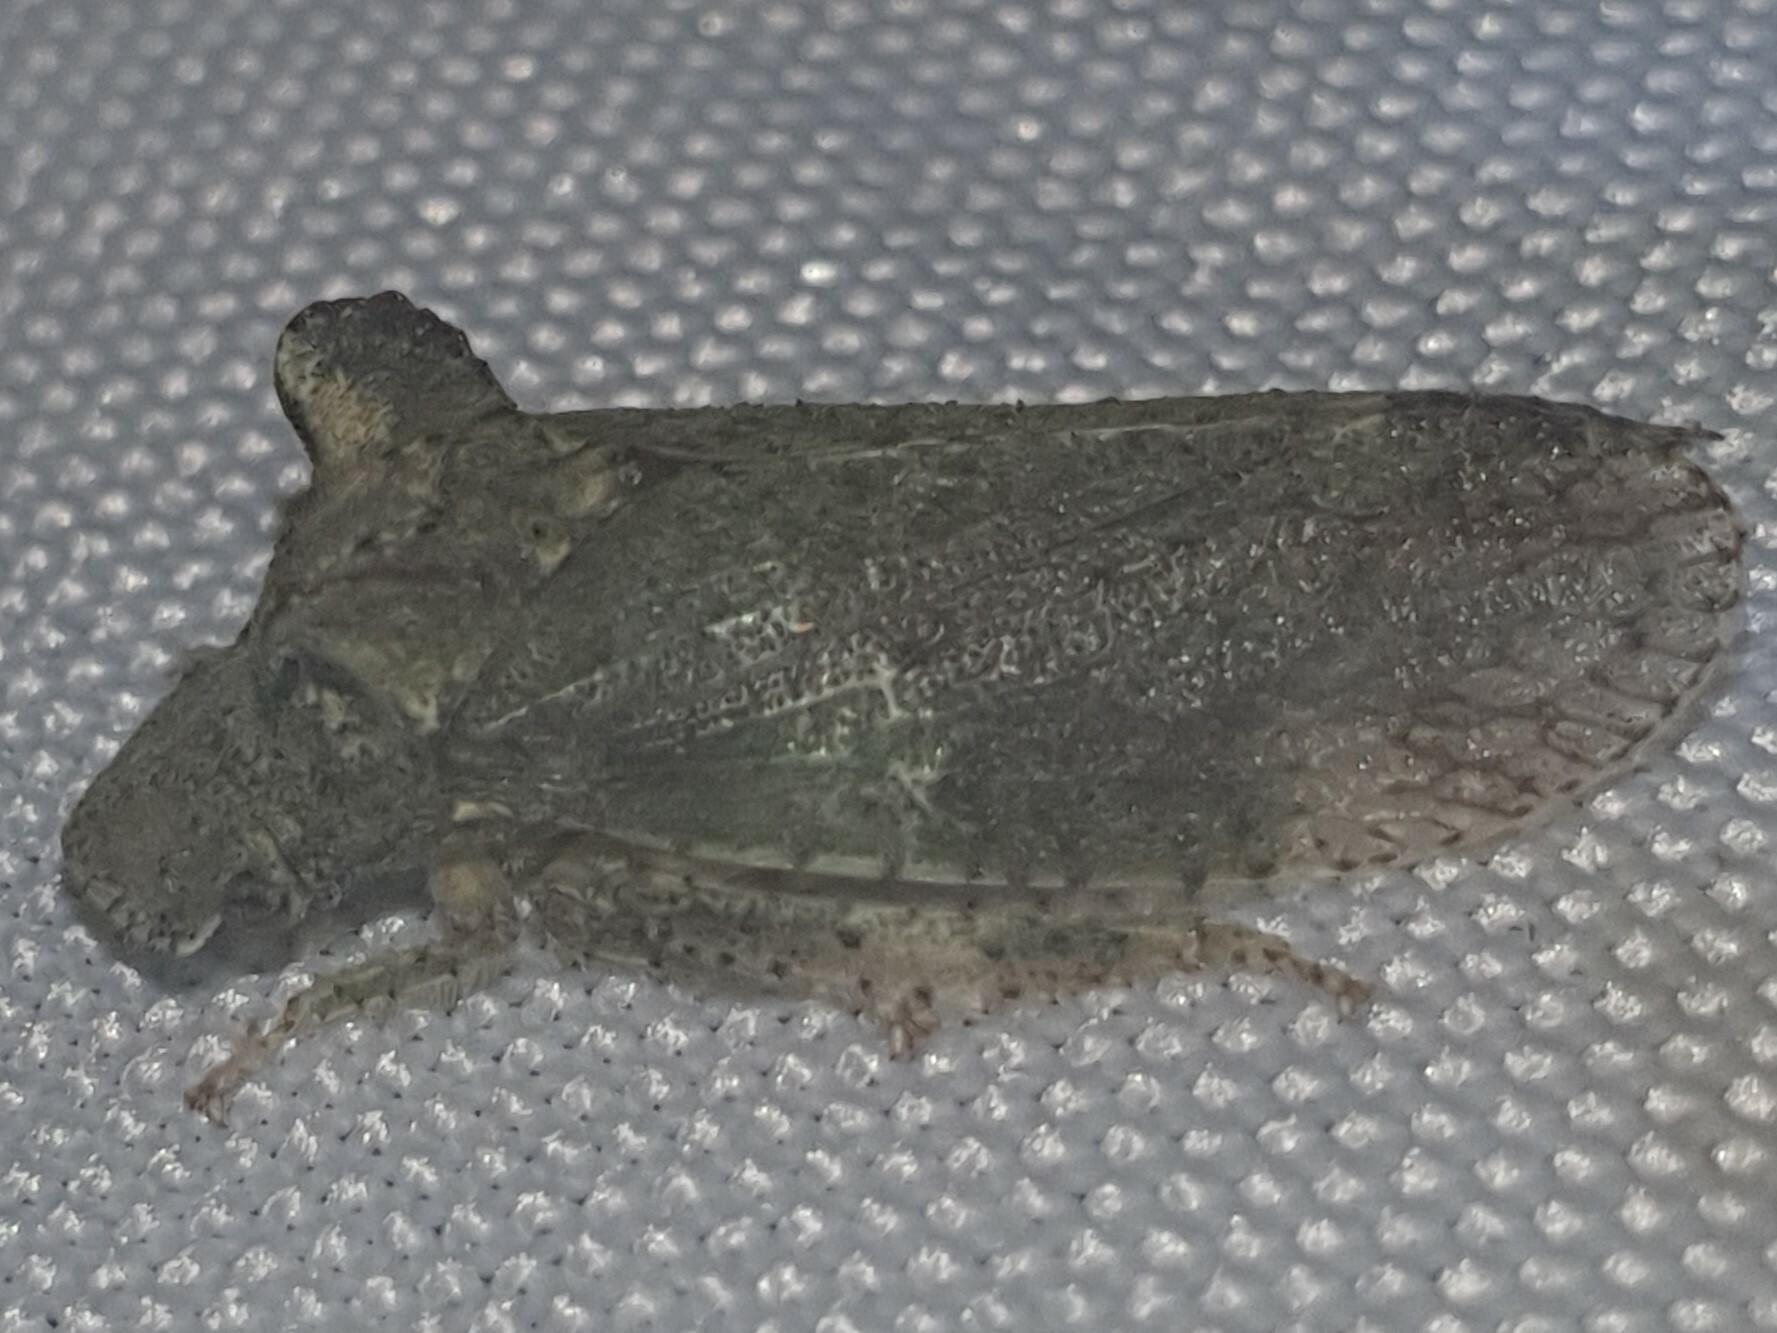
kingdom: Animalia
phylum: Arthropoda
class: Insecta
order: Hemiptera
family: Cicadellidae
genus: Ledra
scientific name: Ledra aurita
